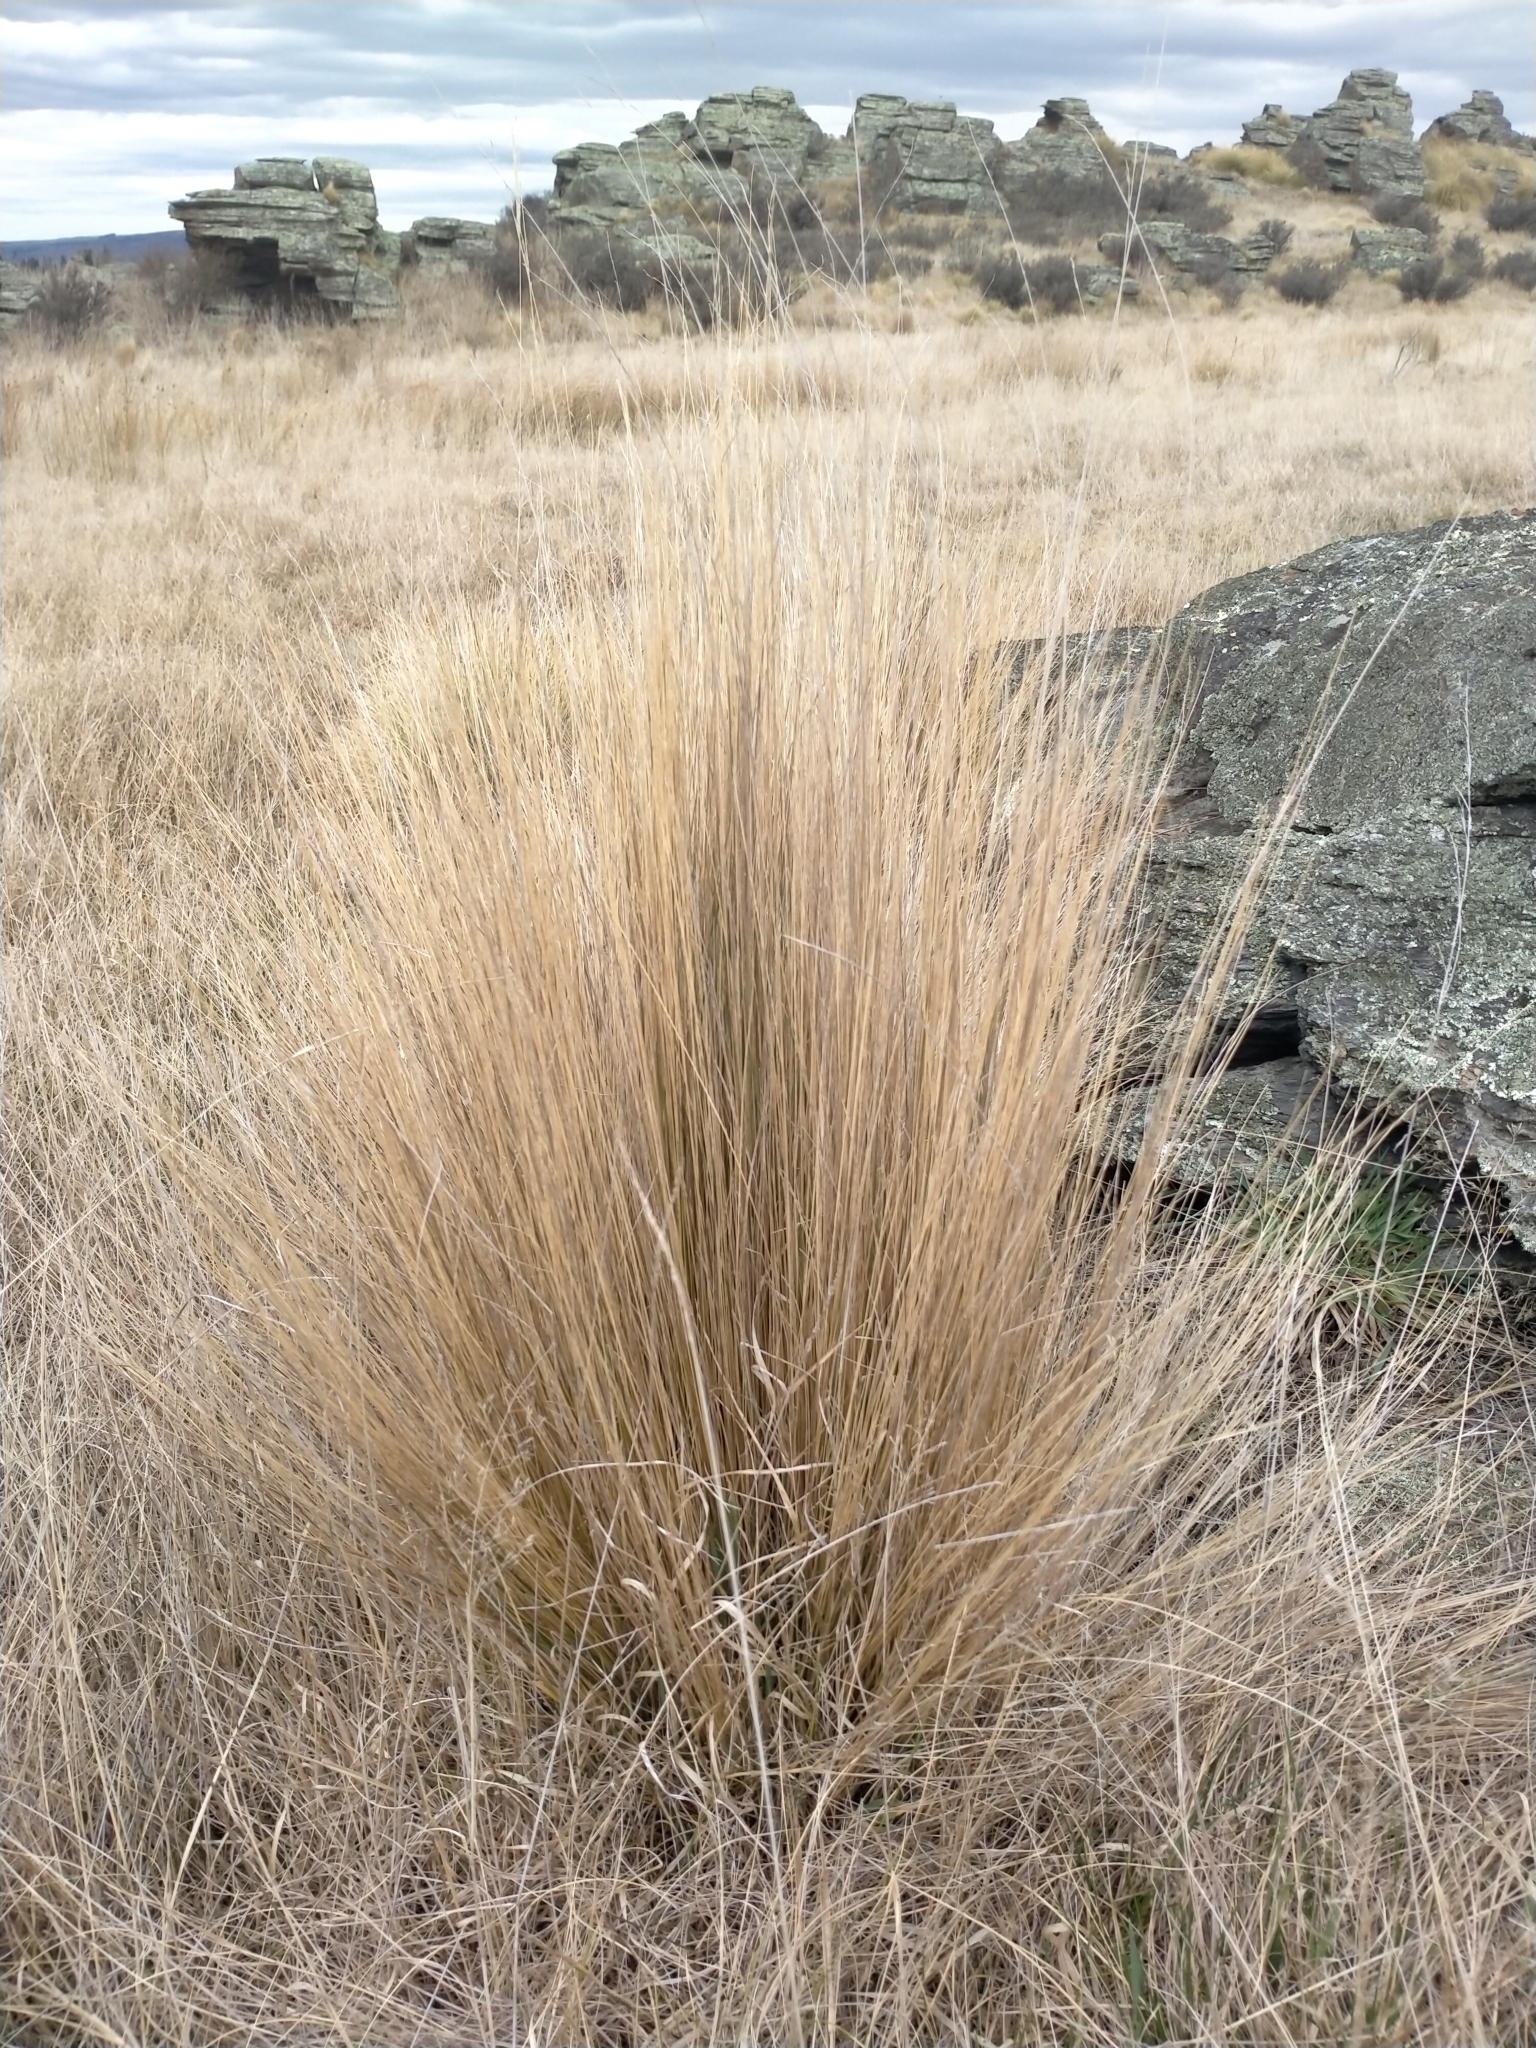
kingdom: Plantae
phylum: Tracheophyta
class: Liliopsida
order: Poales
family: Poaceae
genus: Festuca
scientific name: Festuca novae-zelandiae
